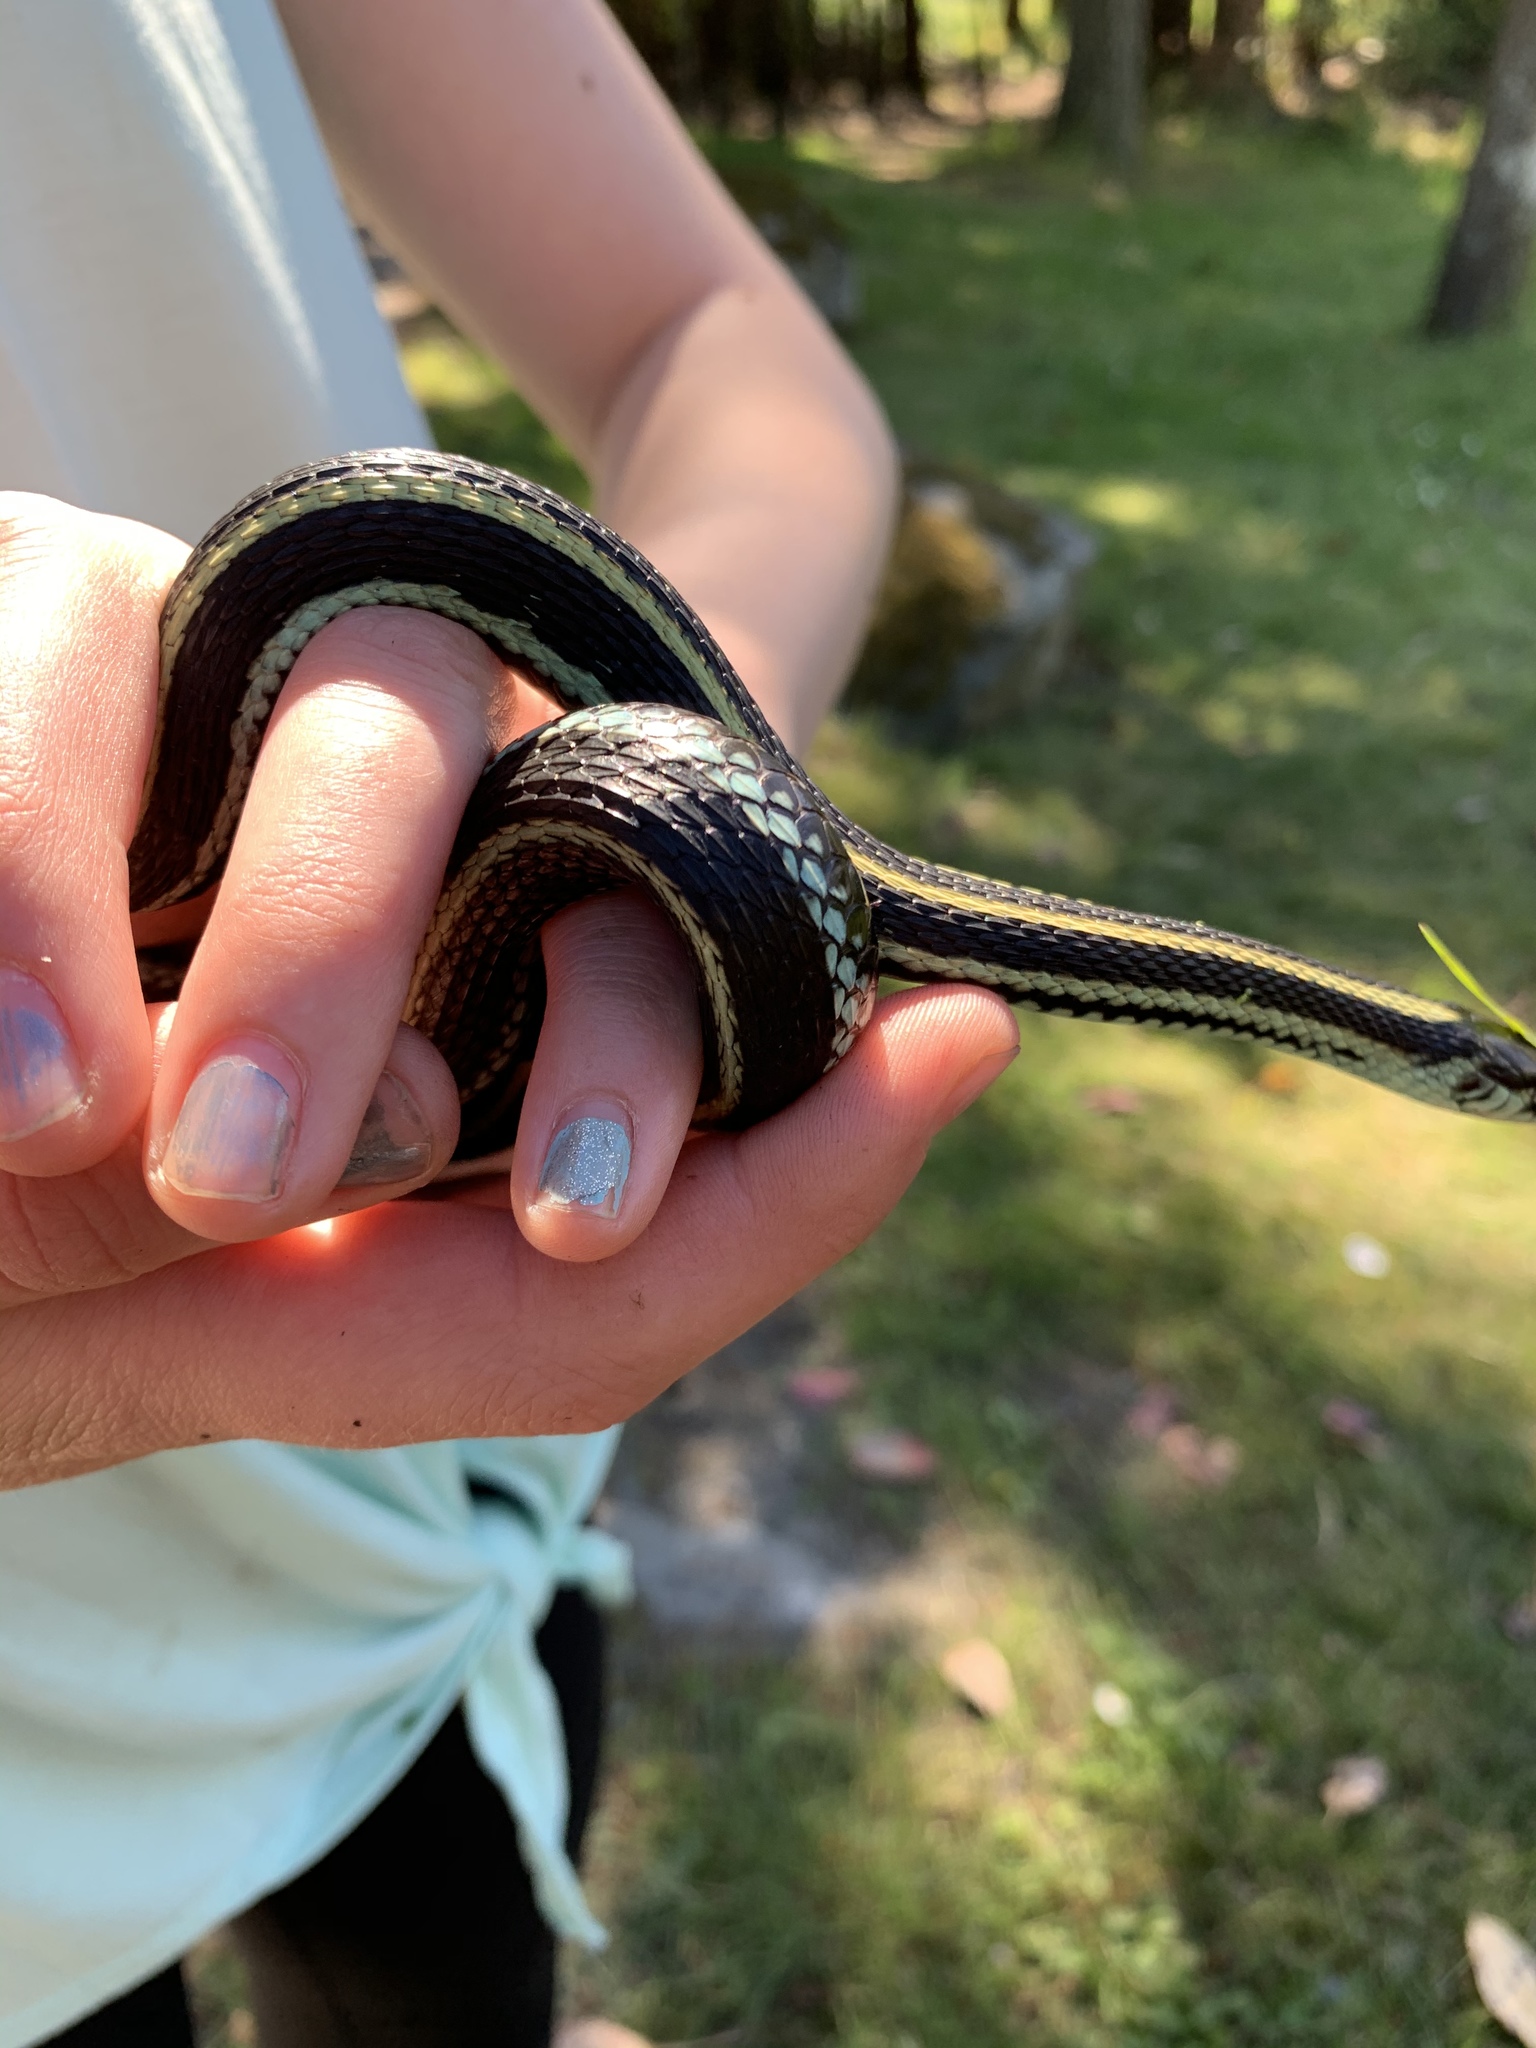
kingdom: Animalia
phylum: Chordata
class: Squamata
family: Colubridae
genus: Thamnophis
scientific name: Thamnophis sirtalis
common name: Common garter snake
